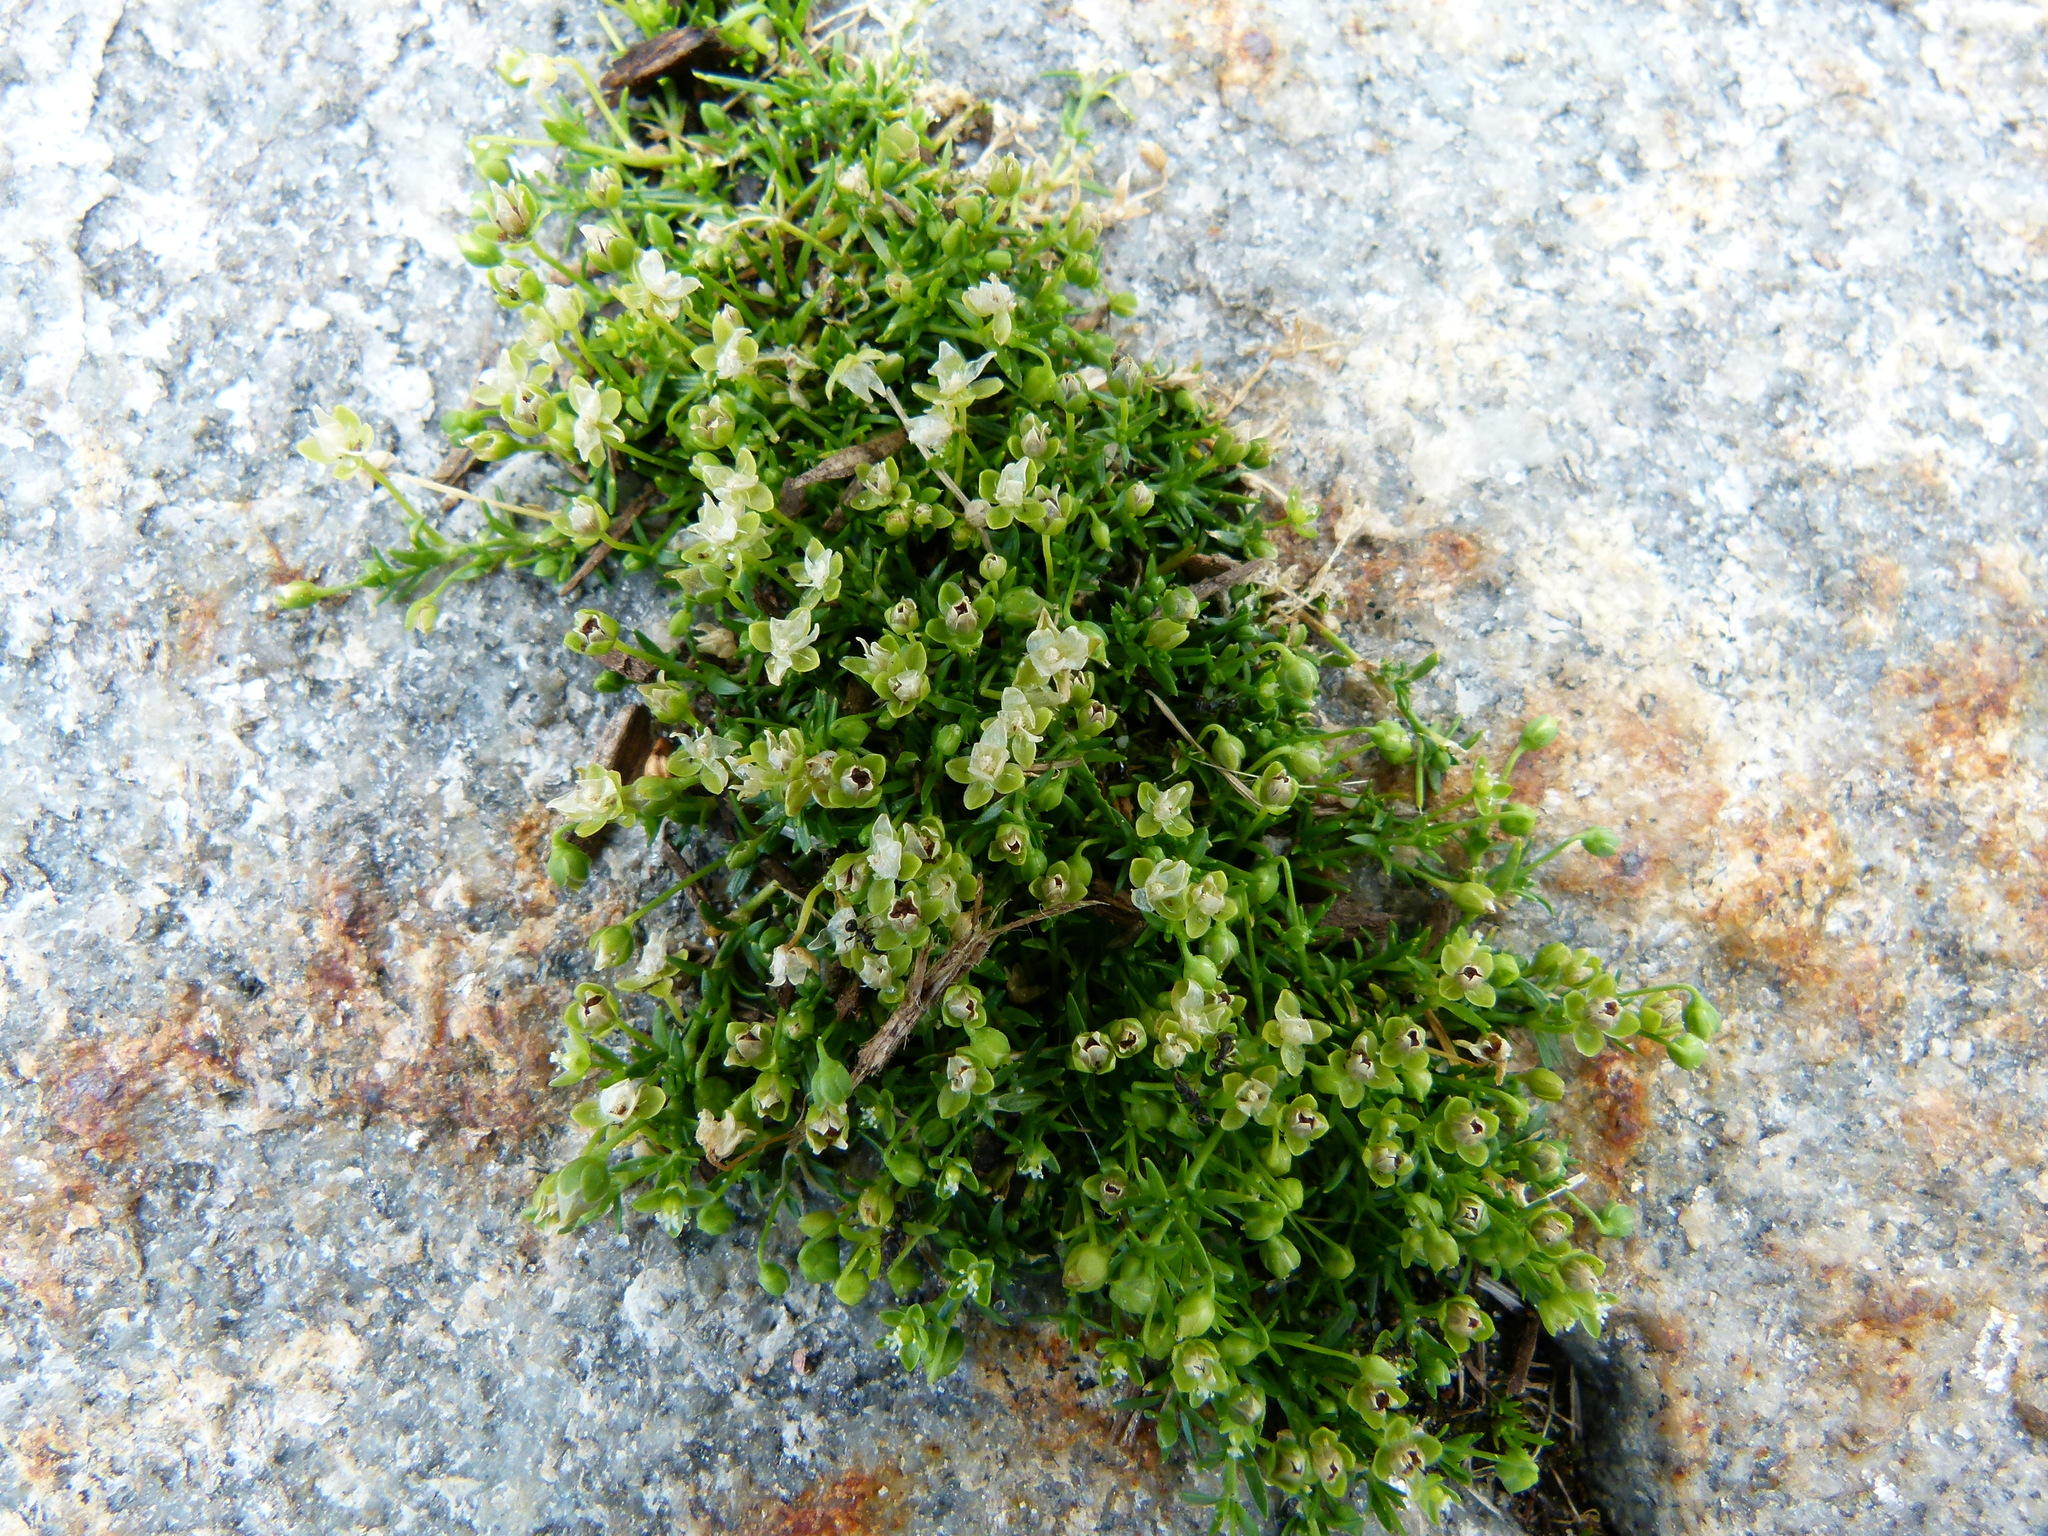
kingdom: Plantae
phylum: Tracheophyta
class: Magnoliopsida
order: Caryophyllales
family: Caryophyllaceae
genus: Sagina
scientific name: Sagina procumbens
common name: Procumbent pearlwort
